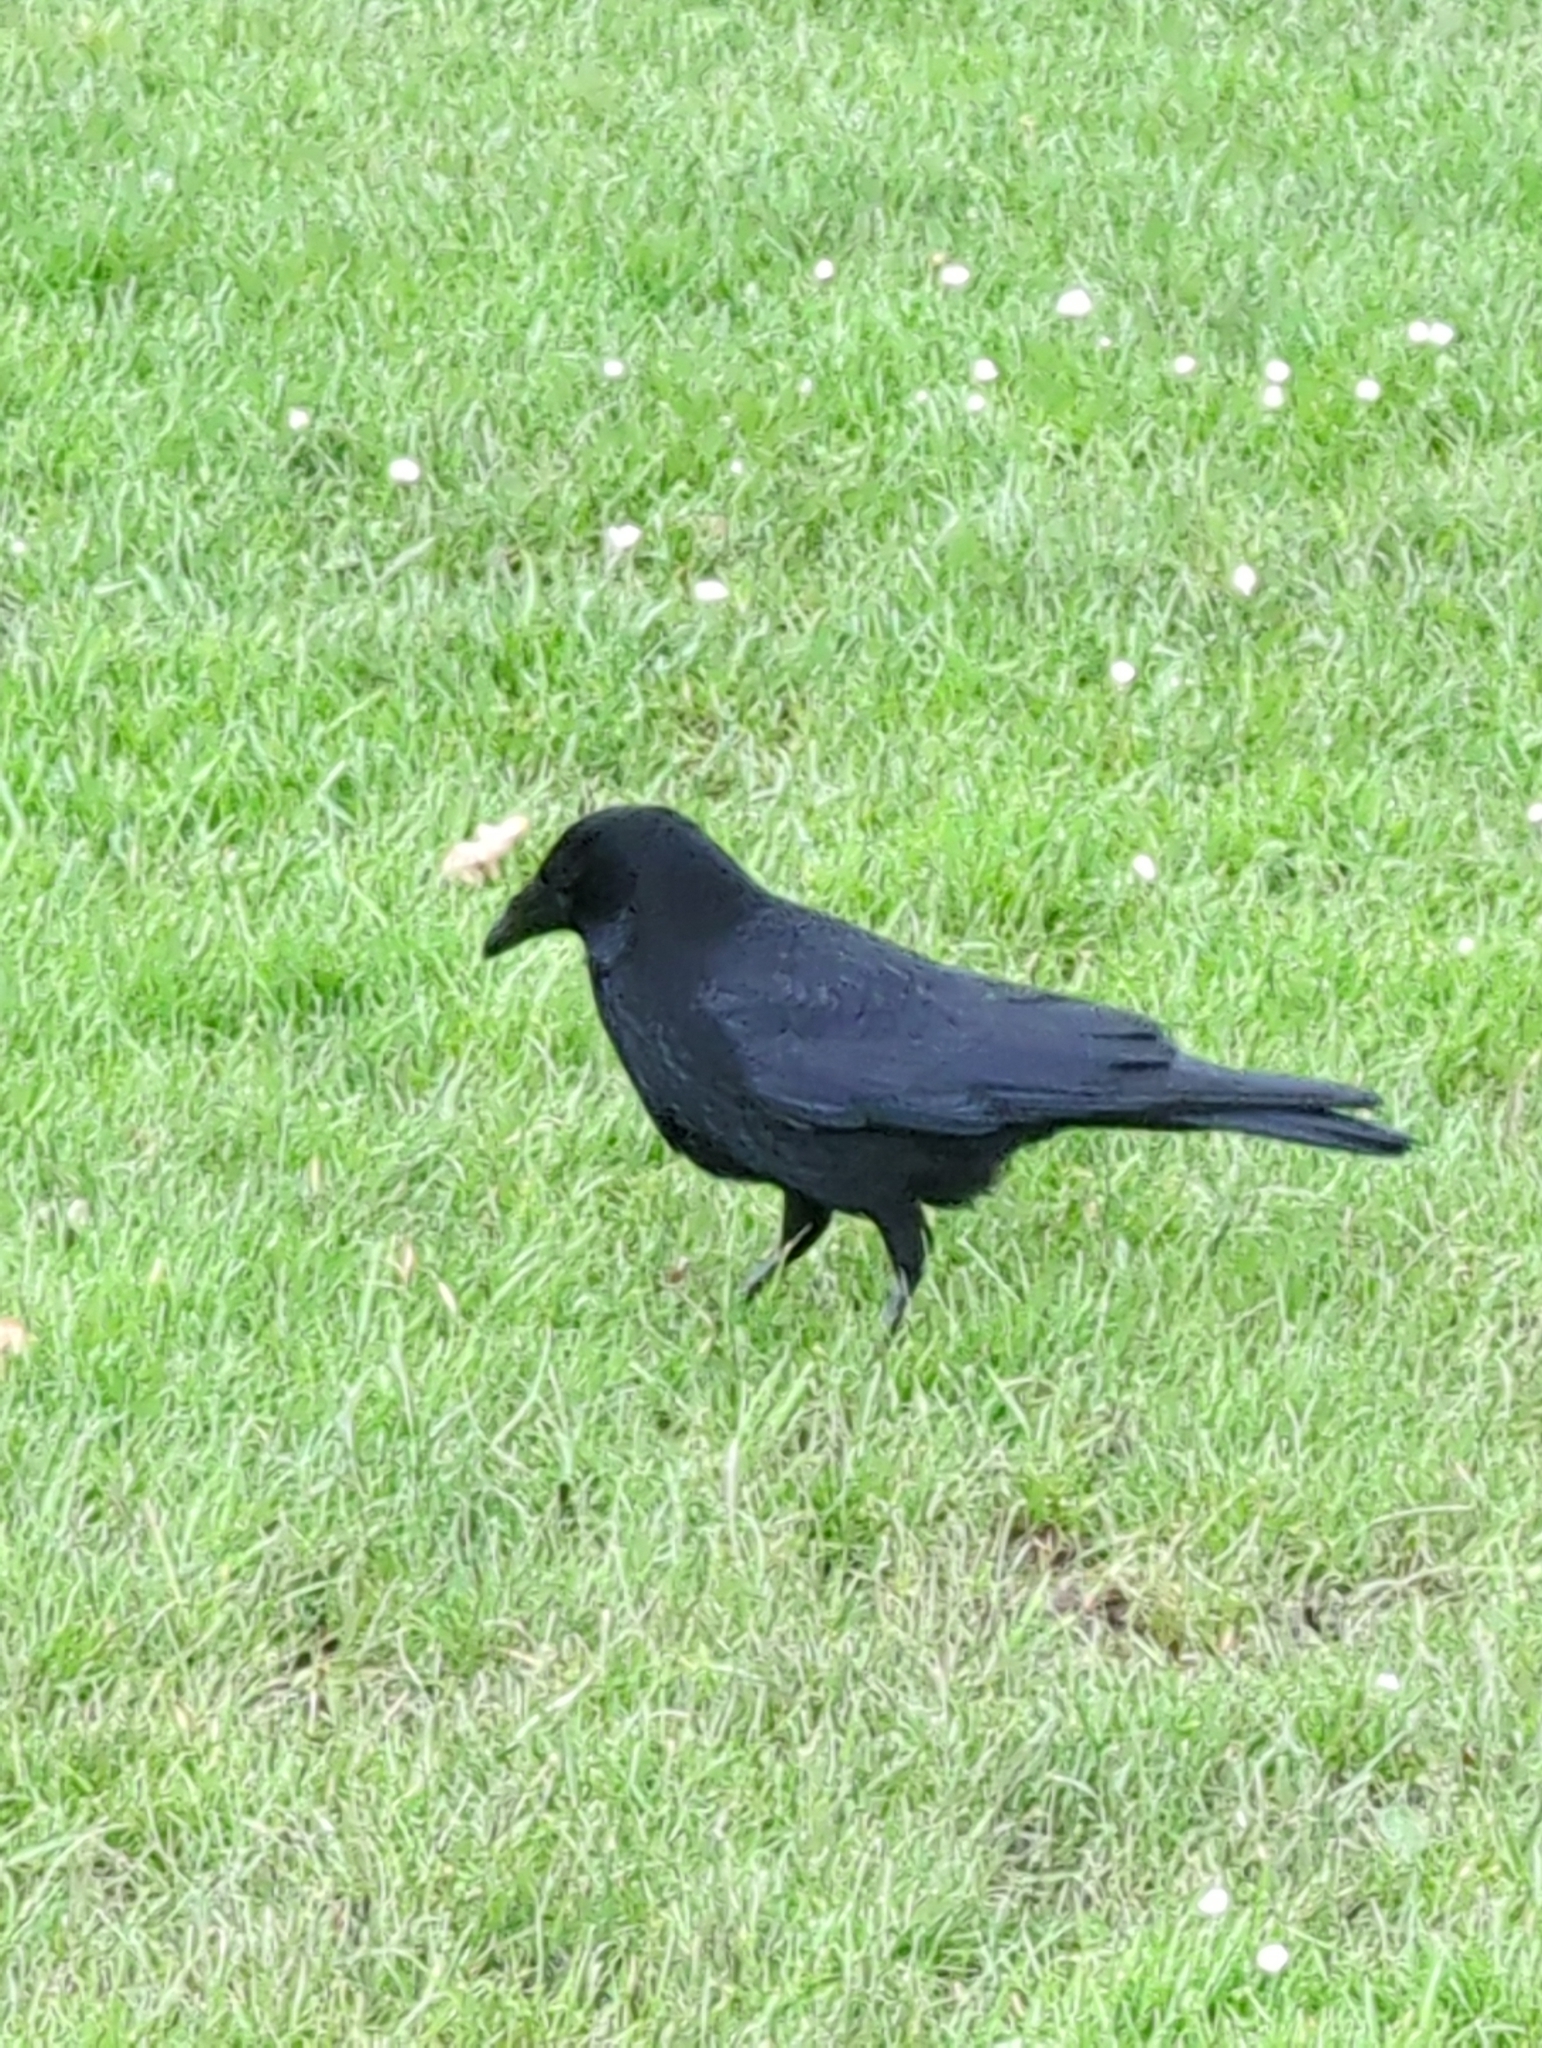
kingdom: Animalia
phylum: Chordata
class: Aves
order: Passeriformes
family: Corvidae
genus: Corvus
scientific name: Corvus corone
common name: Carrion crow
